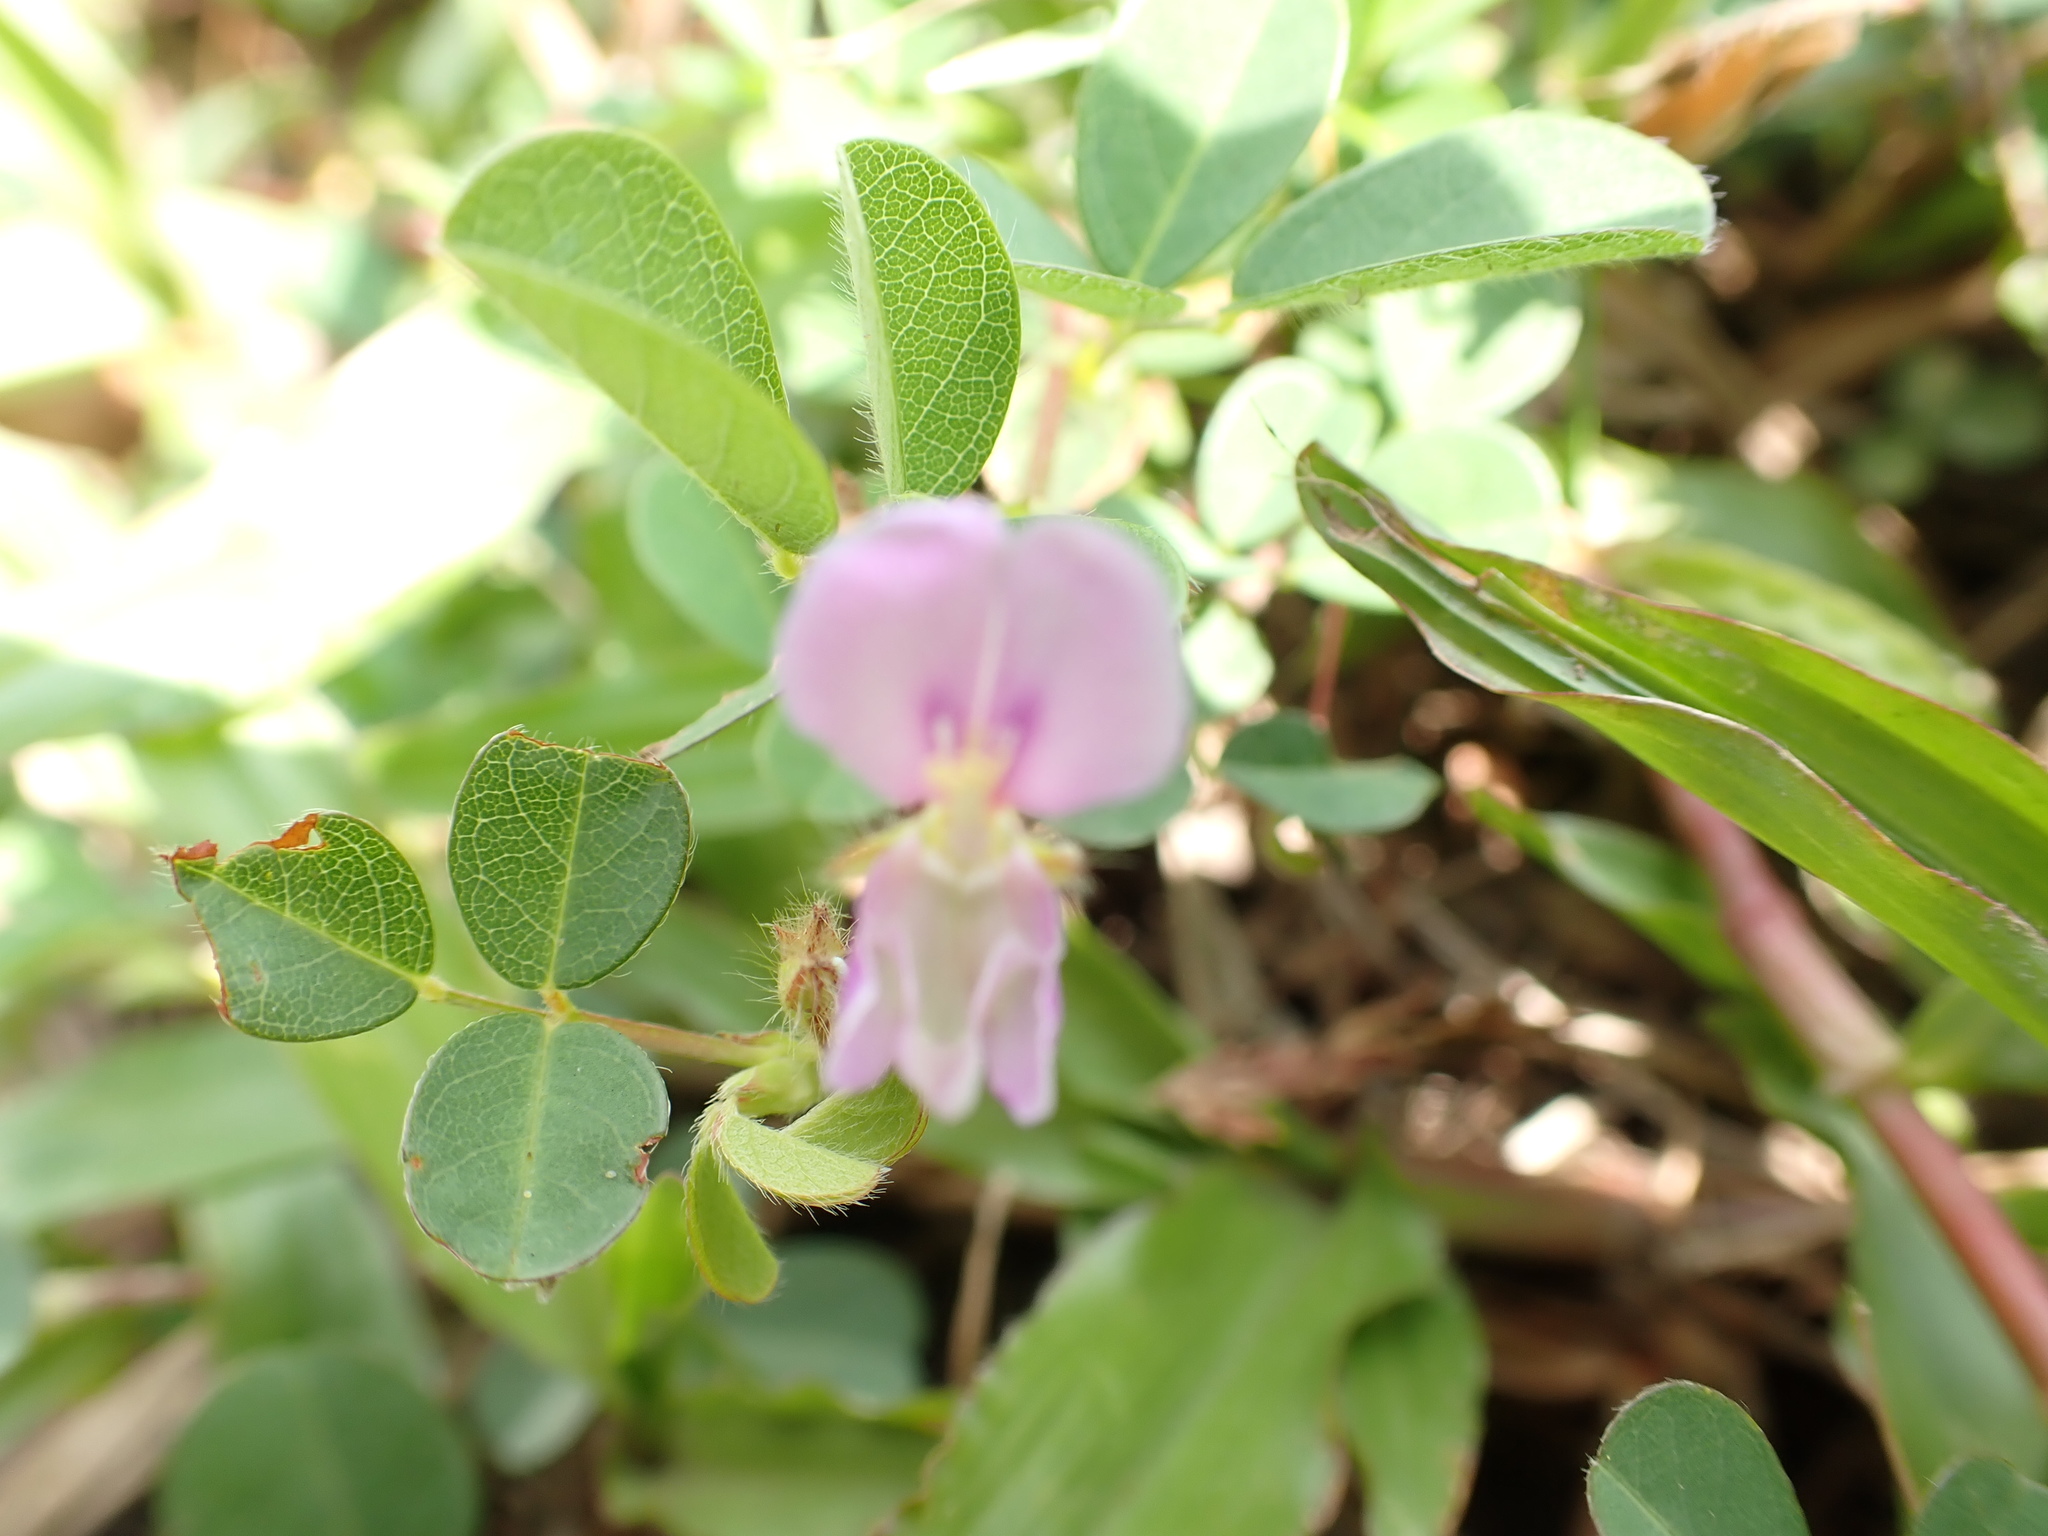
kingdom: Plantae
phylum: Tracheophyta
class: Magnoliopsida
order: Fabales
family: Fabaceae
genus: Grona
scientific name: Grona heterophylla
